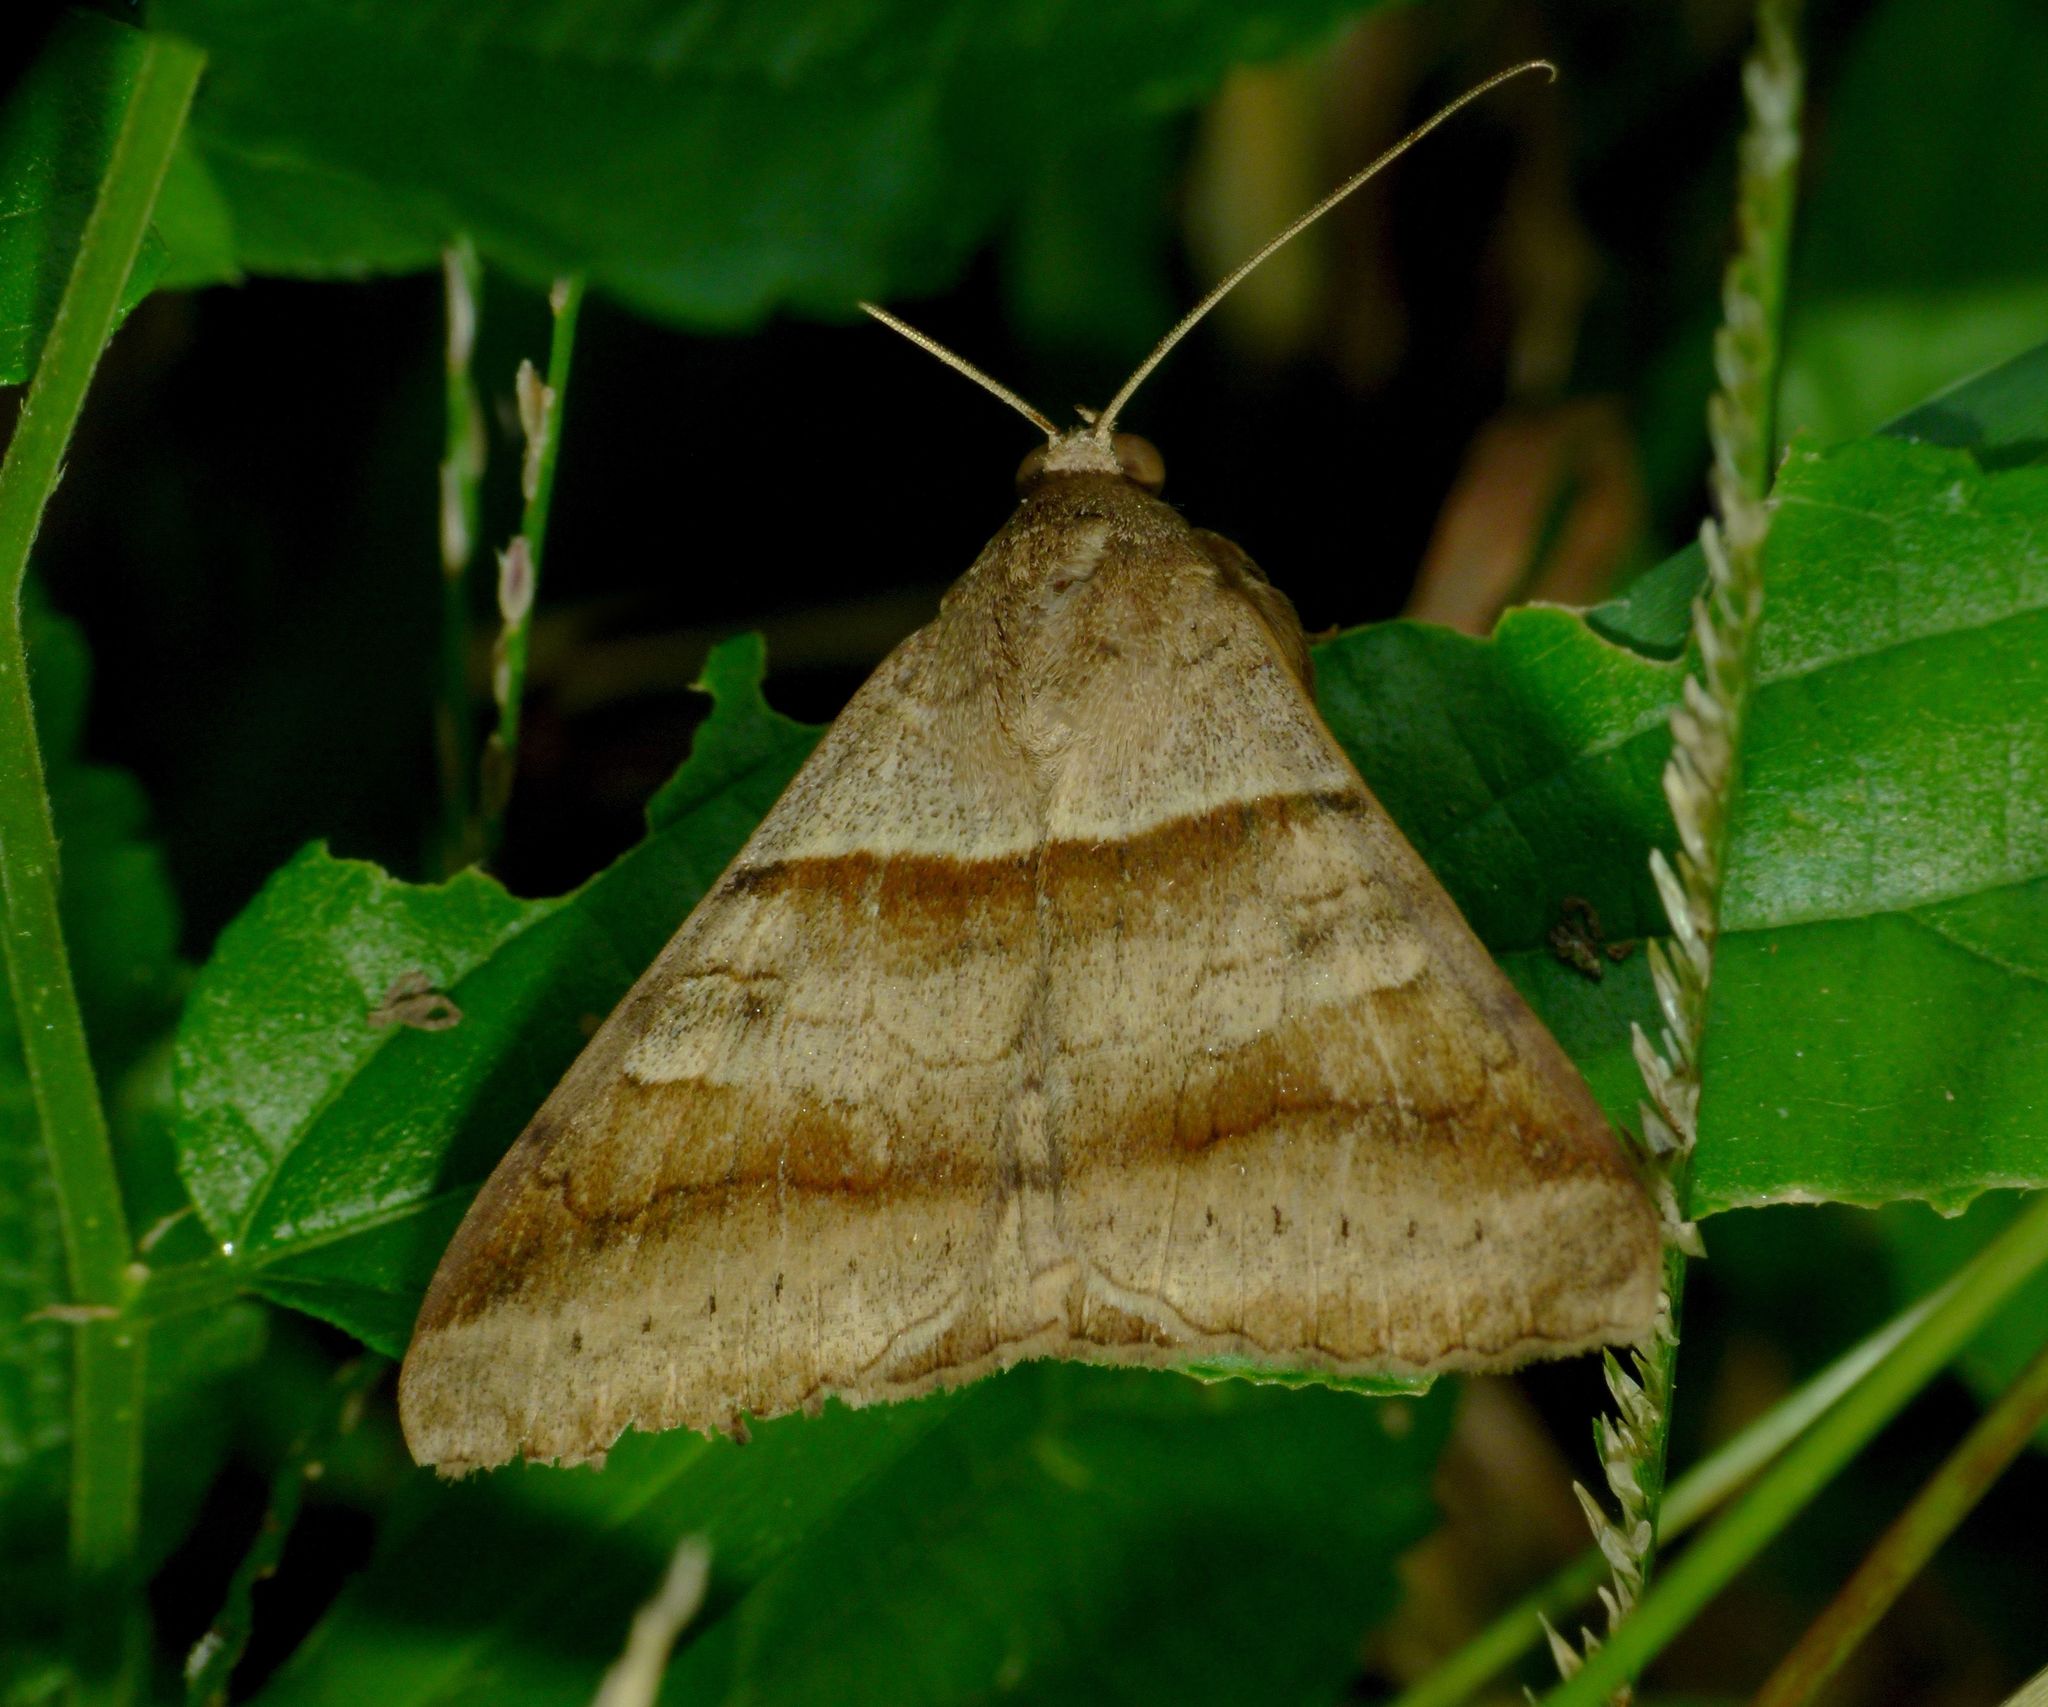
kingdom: Animalia
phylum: Arthropoda
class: Insecta
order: Lepidoptera
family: Erebidae
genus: Mocis
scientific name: Mocis trifasciata
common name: Triple-barred
